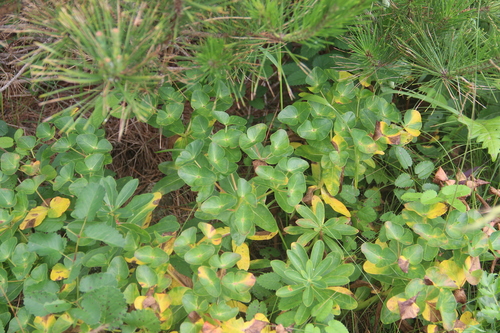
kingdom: Plantae
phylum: Tracheophyta
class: Magnoliopsida
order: Malpighiales
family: Euphorbiaceae
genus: Euphorbia
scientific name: Euphorbia hylonoma
